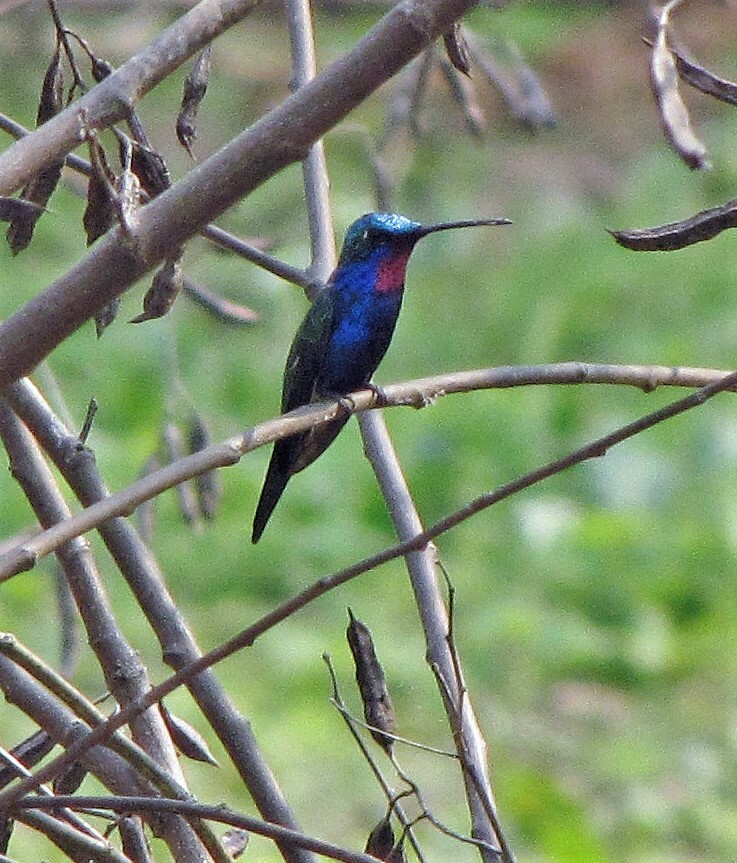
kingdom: Animalia
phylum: Chordata
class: Aves
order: Apodiformes
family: Trochilidae
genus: Heliomaster
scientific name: Heliomaster furcifer
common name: Blue-tufted starthroat
